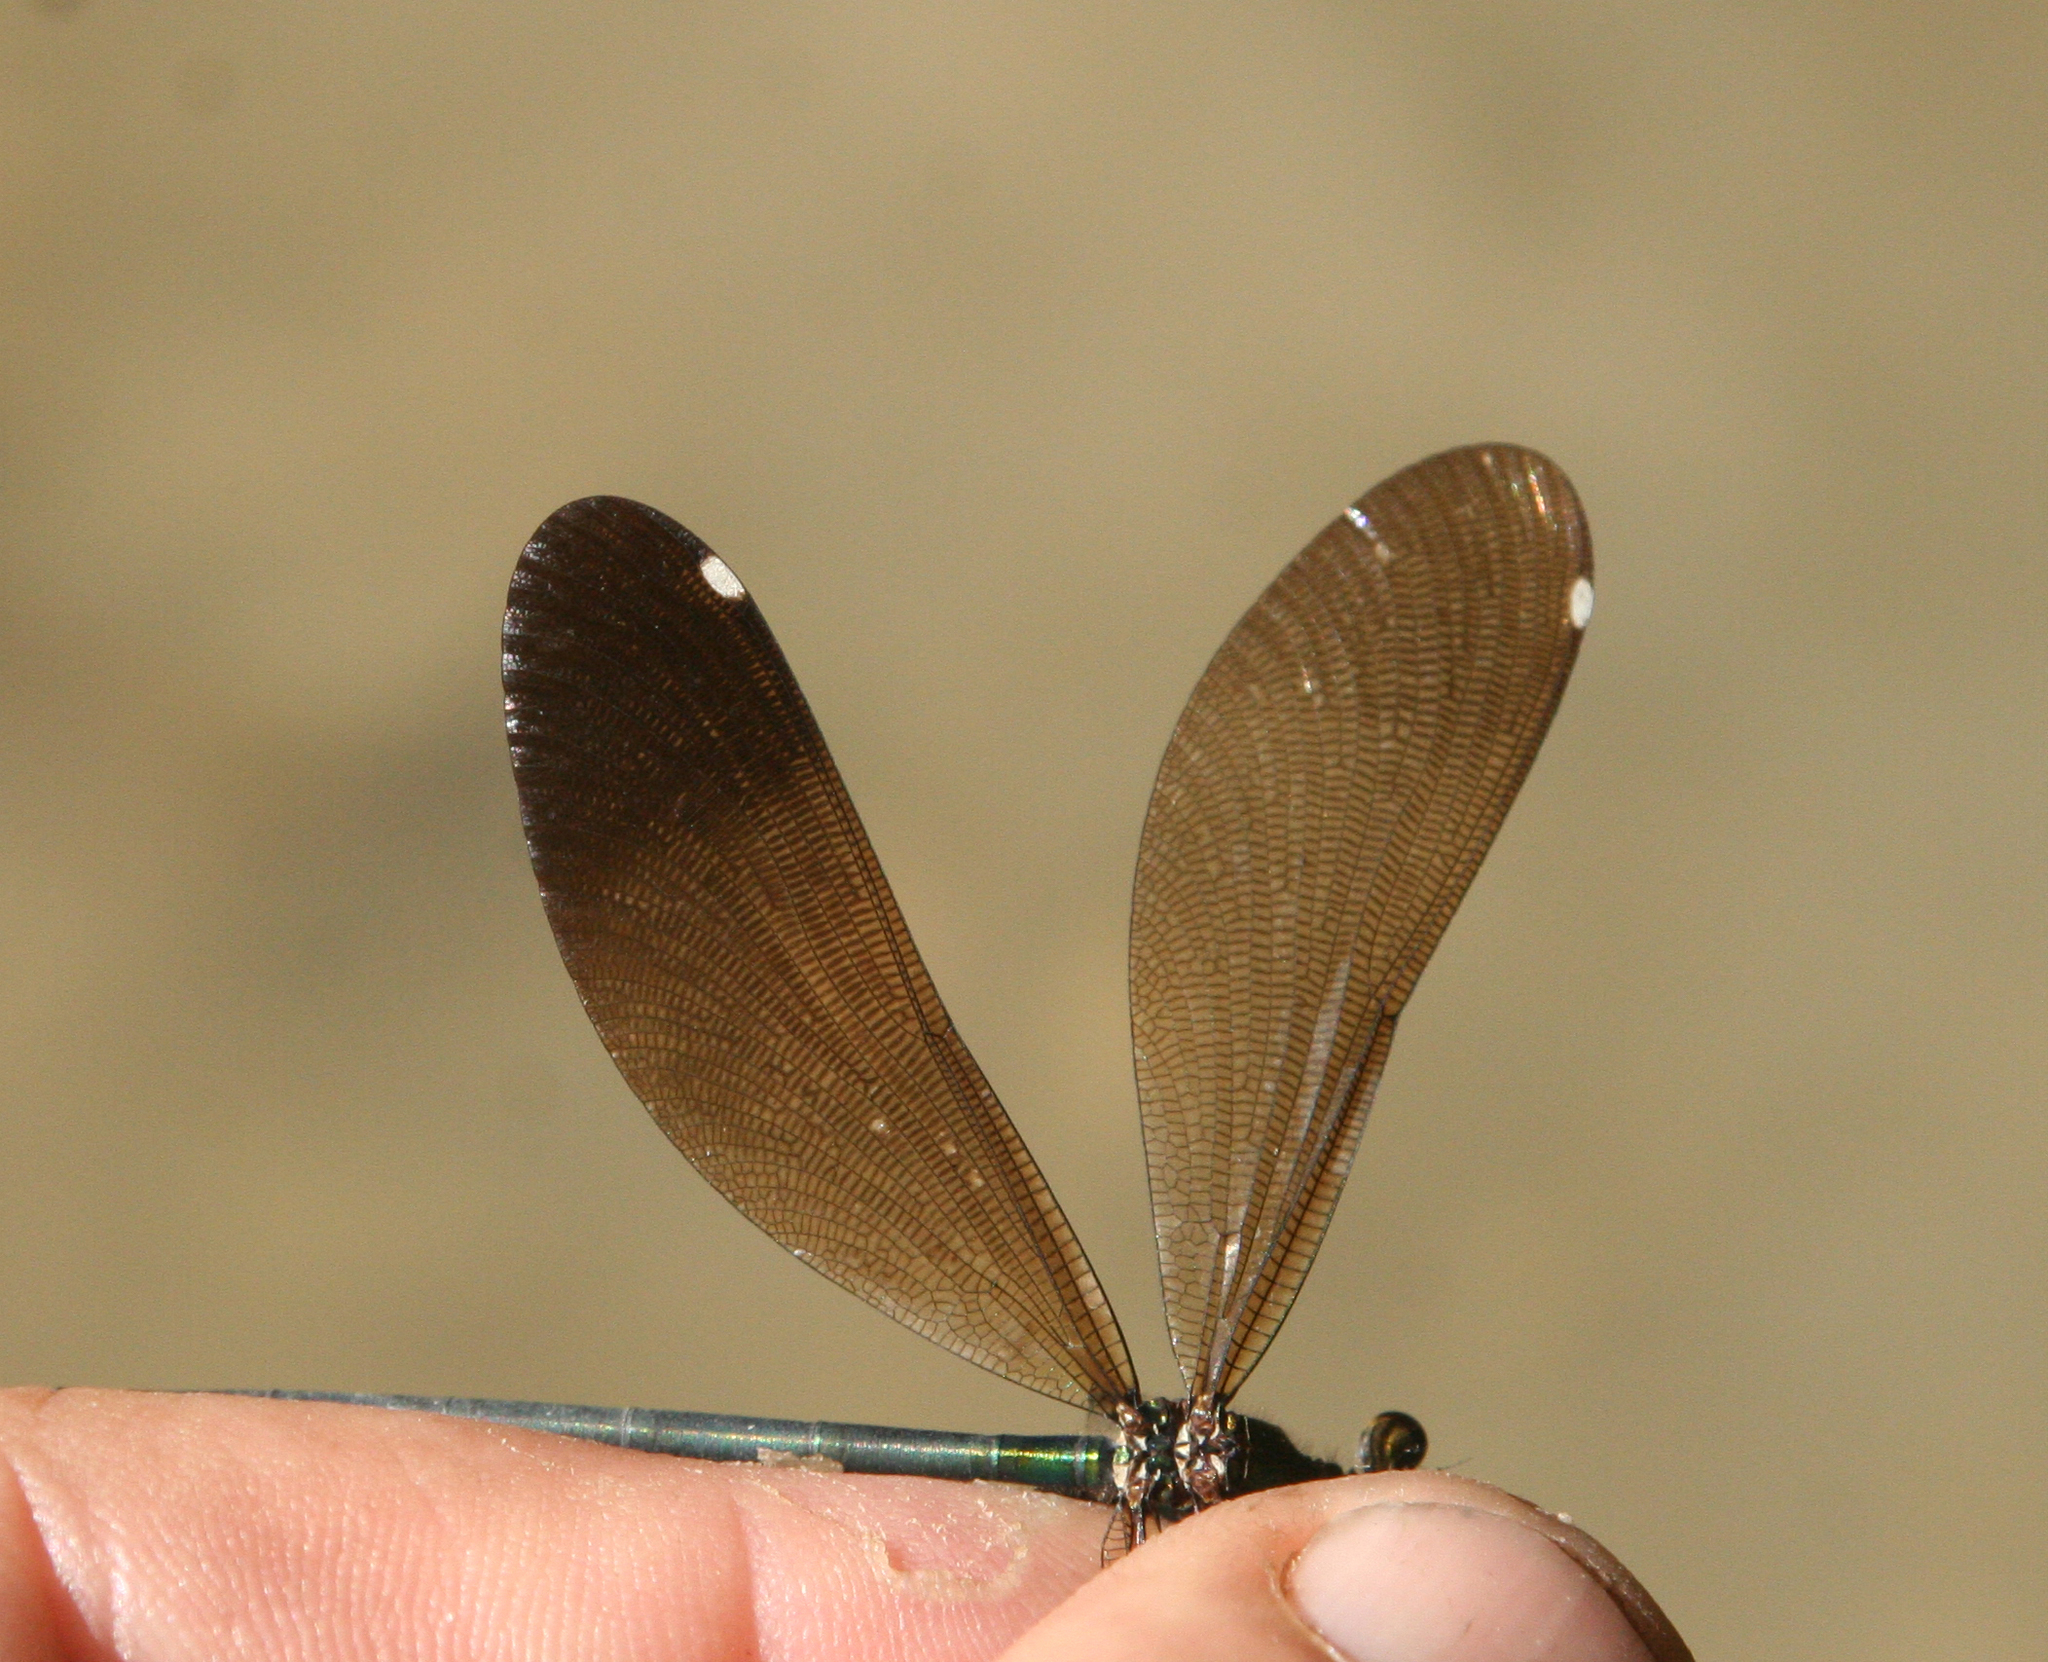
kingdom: Animalia
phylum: Arthropoda
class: Insecta
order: Odonata
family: Calopterygidae
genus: Calopteryx
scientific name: Calopteryx virgo
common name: Beautiful demoiselle
